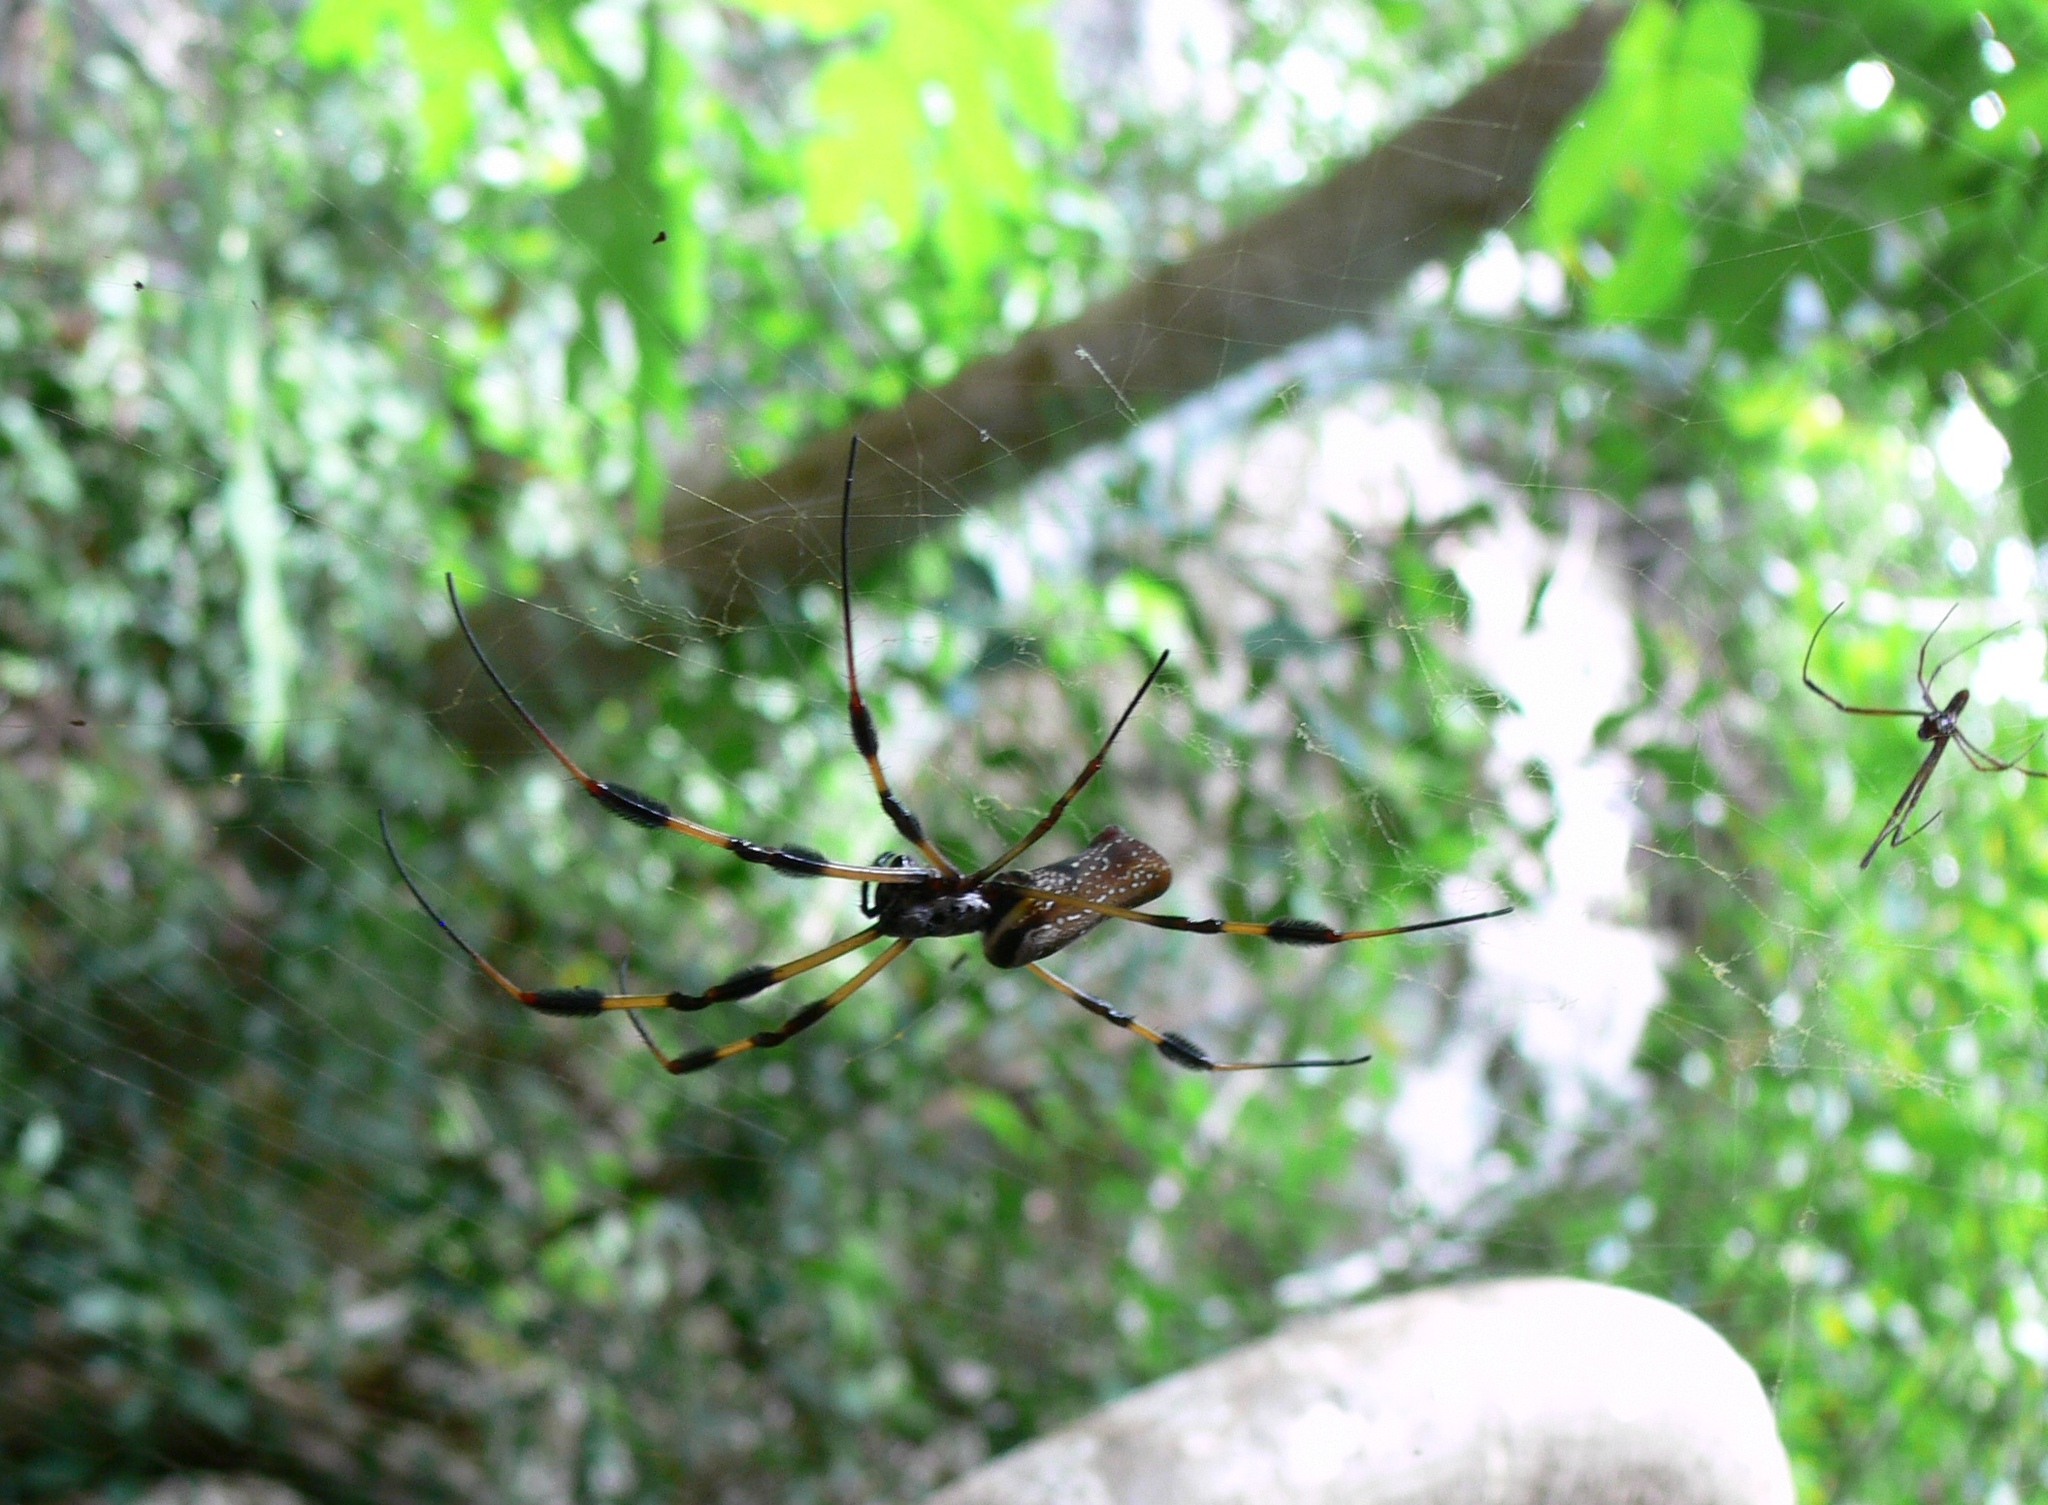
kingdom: Animalia
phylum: Arthropoda
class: Arachnida
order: Araneae
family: Araneidae
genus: Trichonephila
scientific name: Trichonephila clavipes
